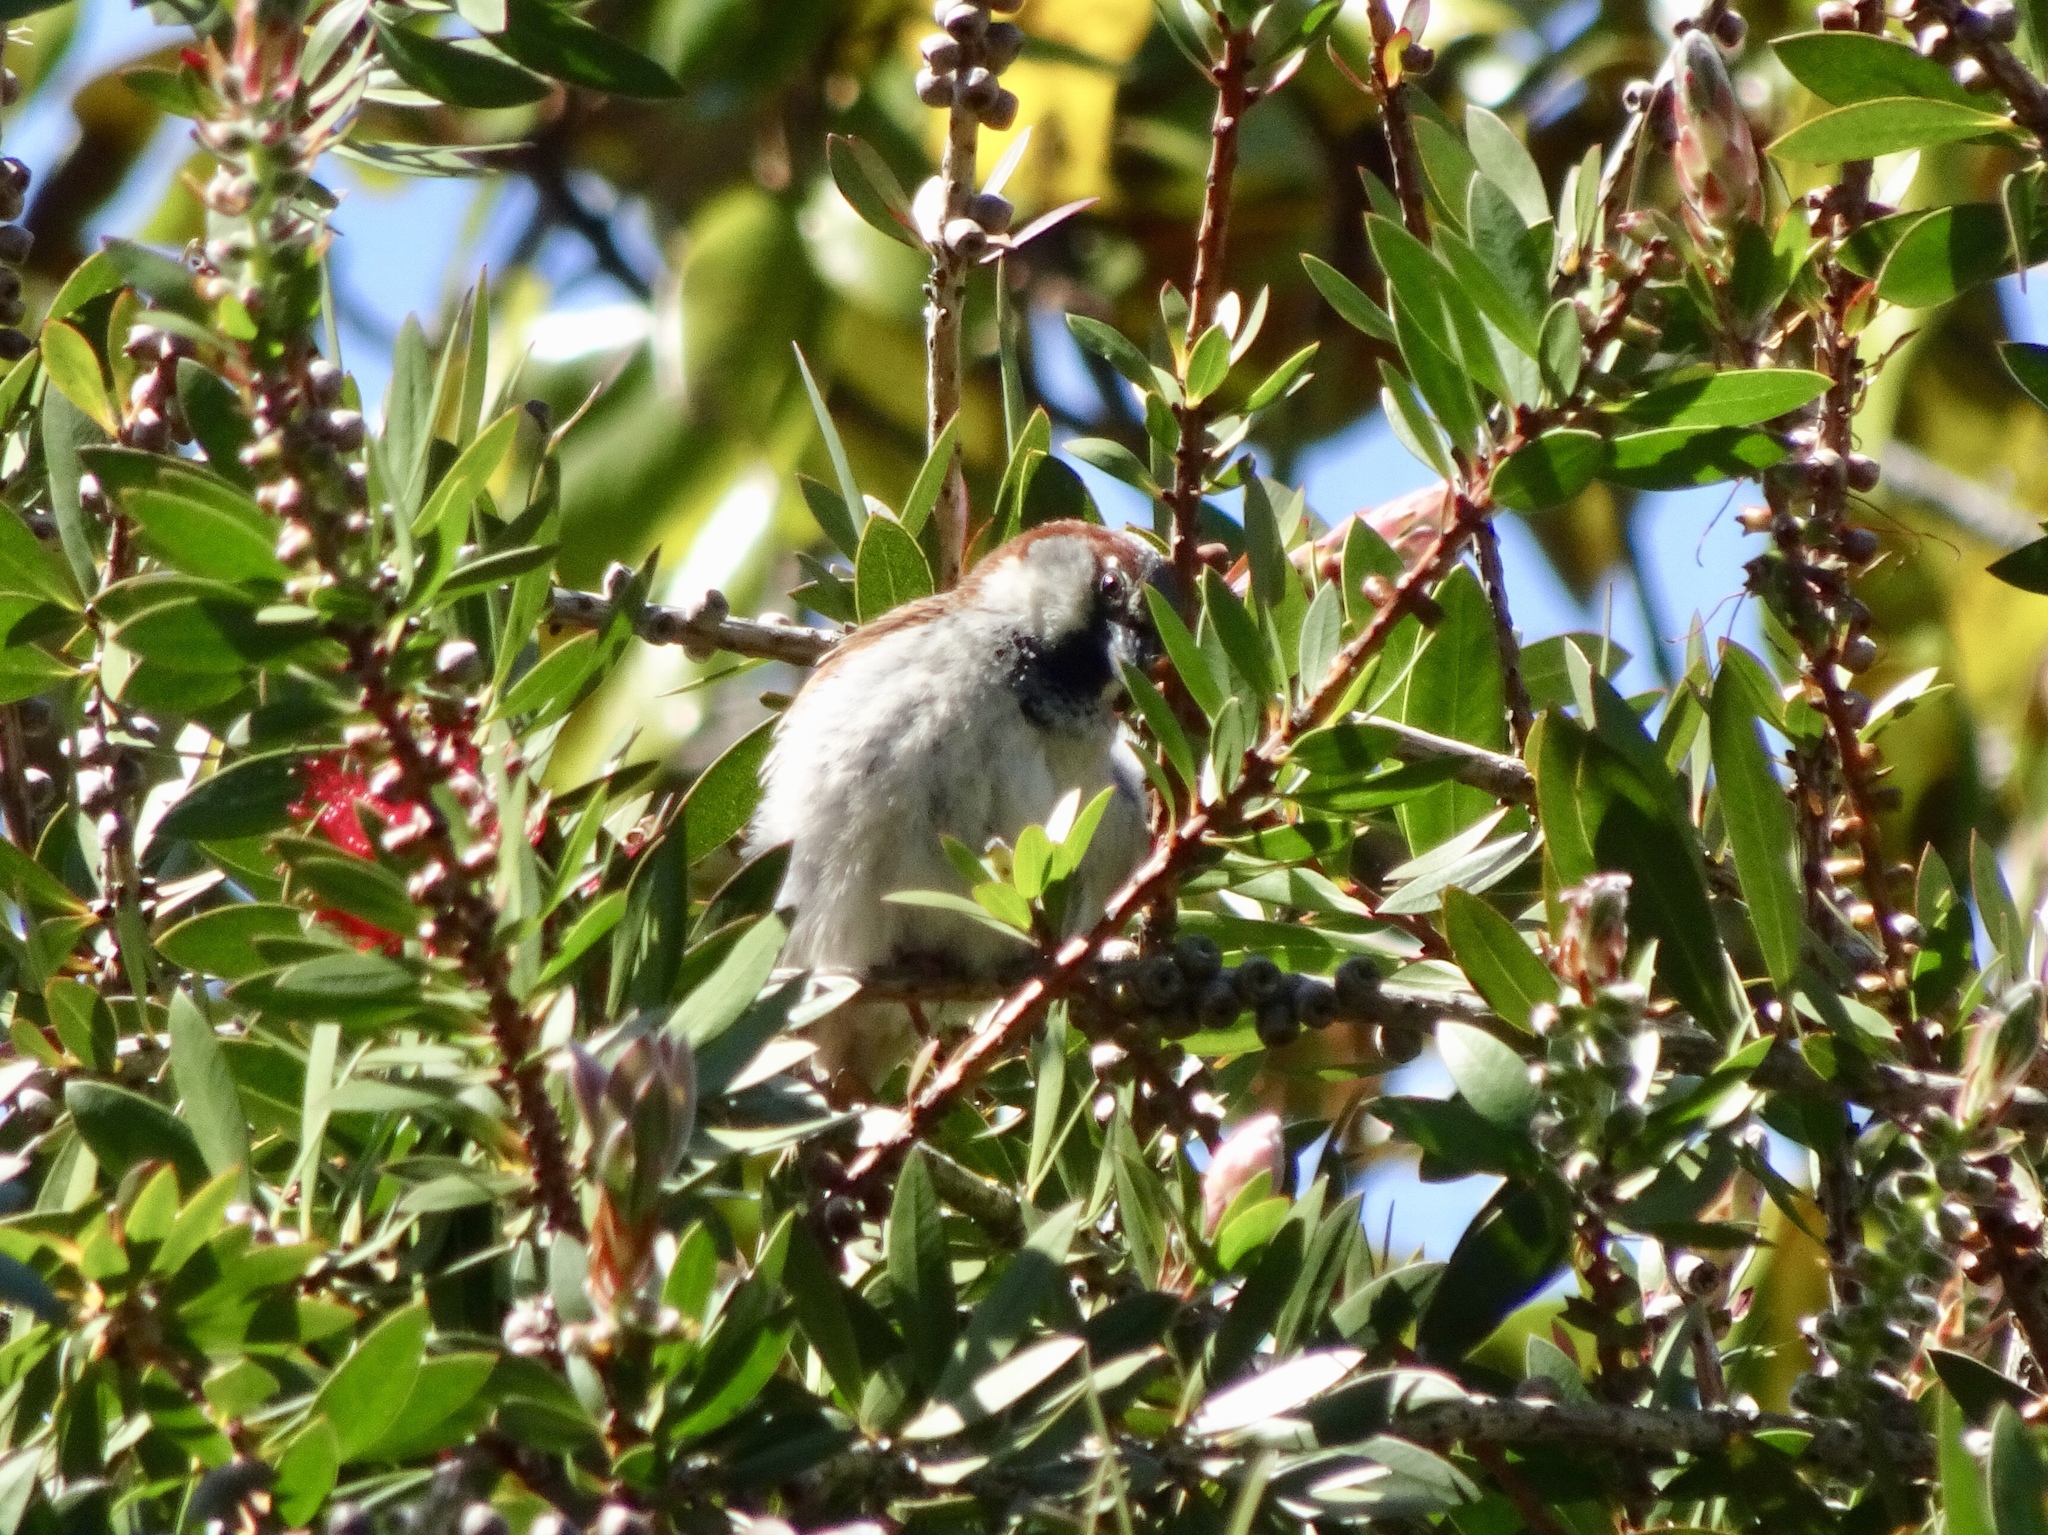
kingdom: Animalia
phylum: Chordata
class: Aves
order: Passeriformes
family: Passeridae
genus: Passer
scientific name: Passer domesticus
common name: House sparrow
